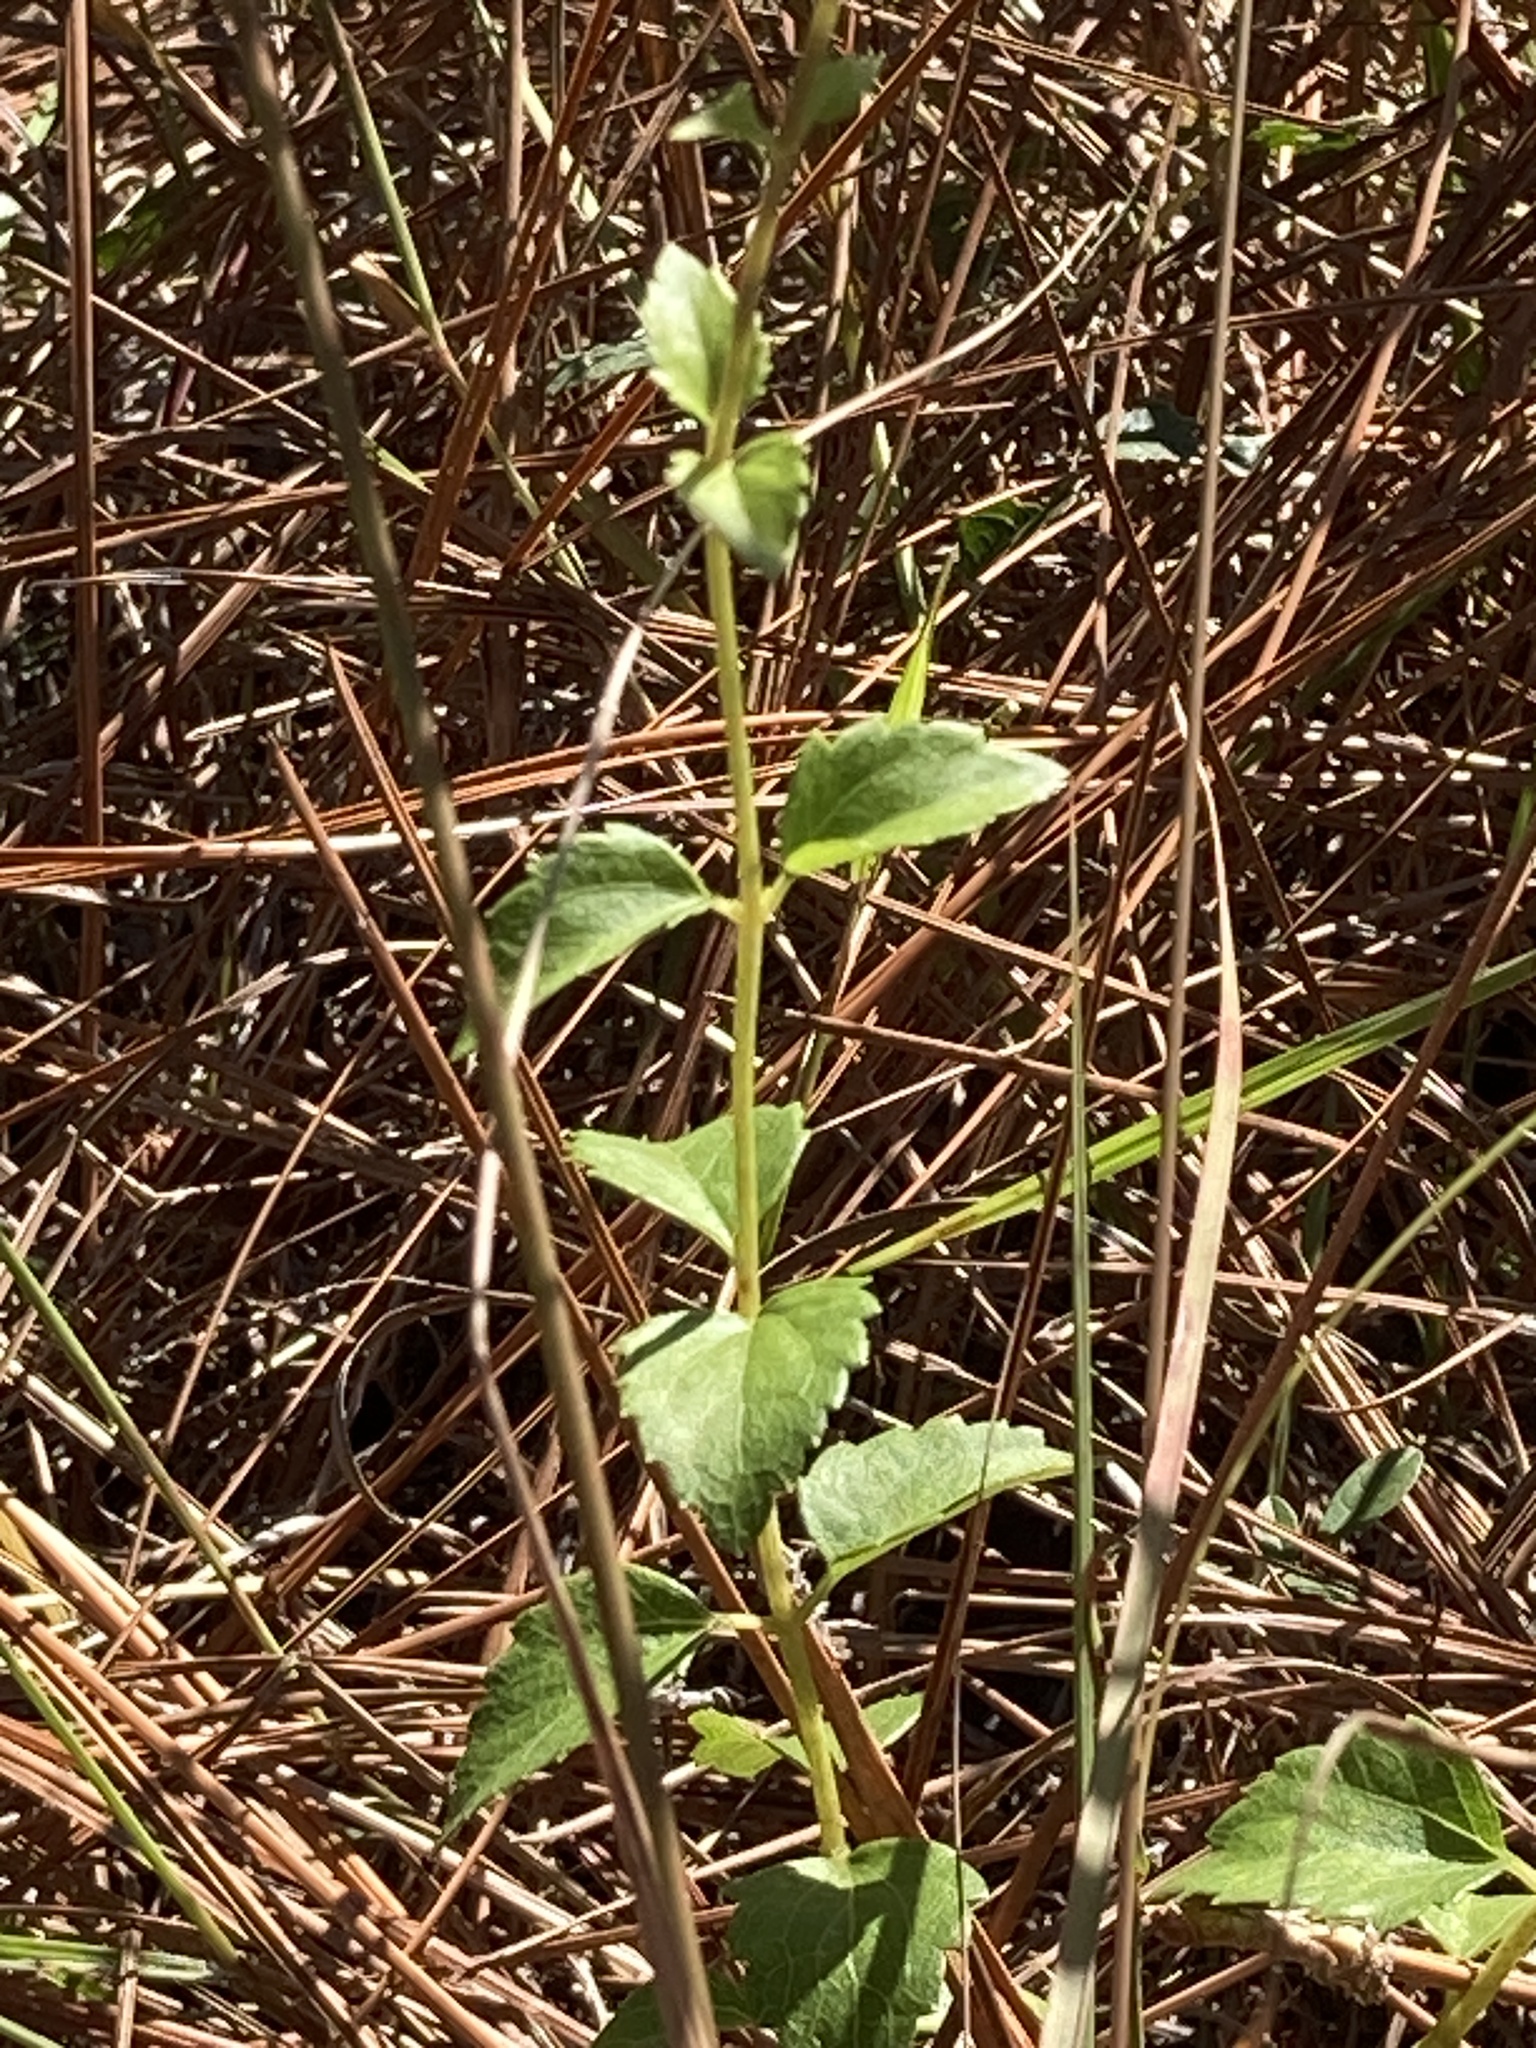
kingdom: Plantae
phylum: Tracheophyta
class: Magnoliopsida
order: Asterales
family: Asteraceae
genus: Ageratina
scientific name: Ageratina jucunda
